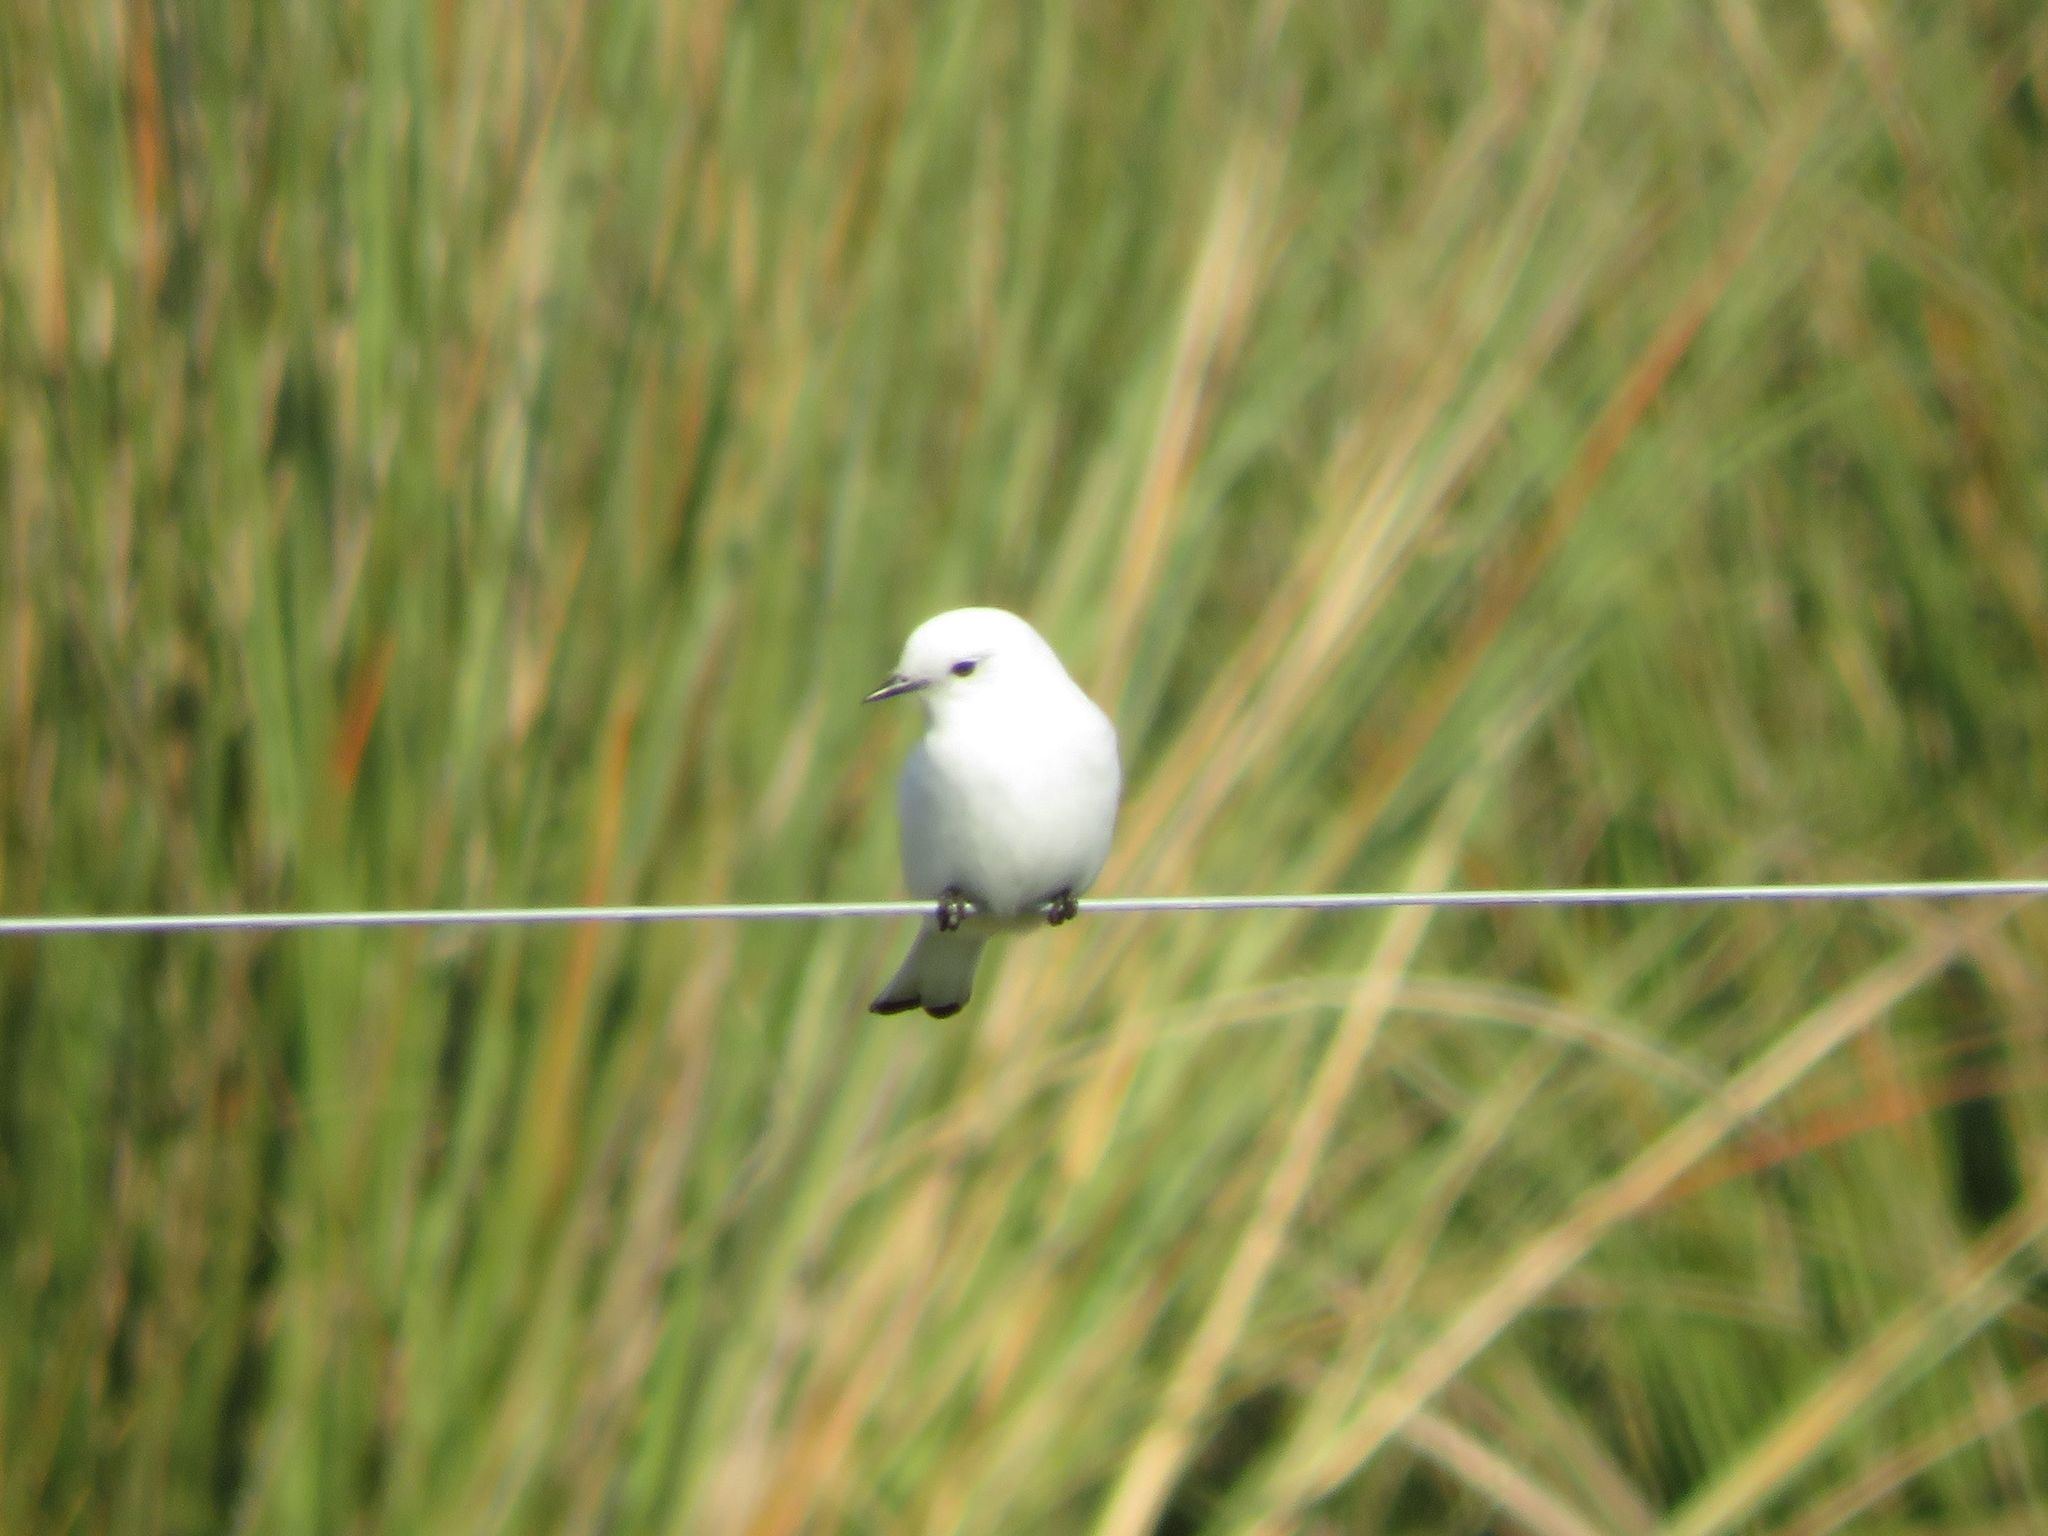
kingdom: Animalia
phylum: Chordata
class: Aves
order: Passeriformes
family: Tyrannidae
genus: Xolmis
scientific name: Xolmis irupero
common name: White monjita
